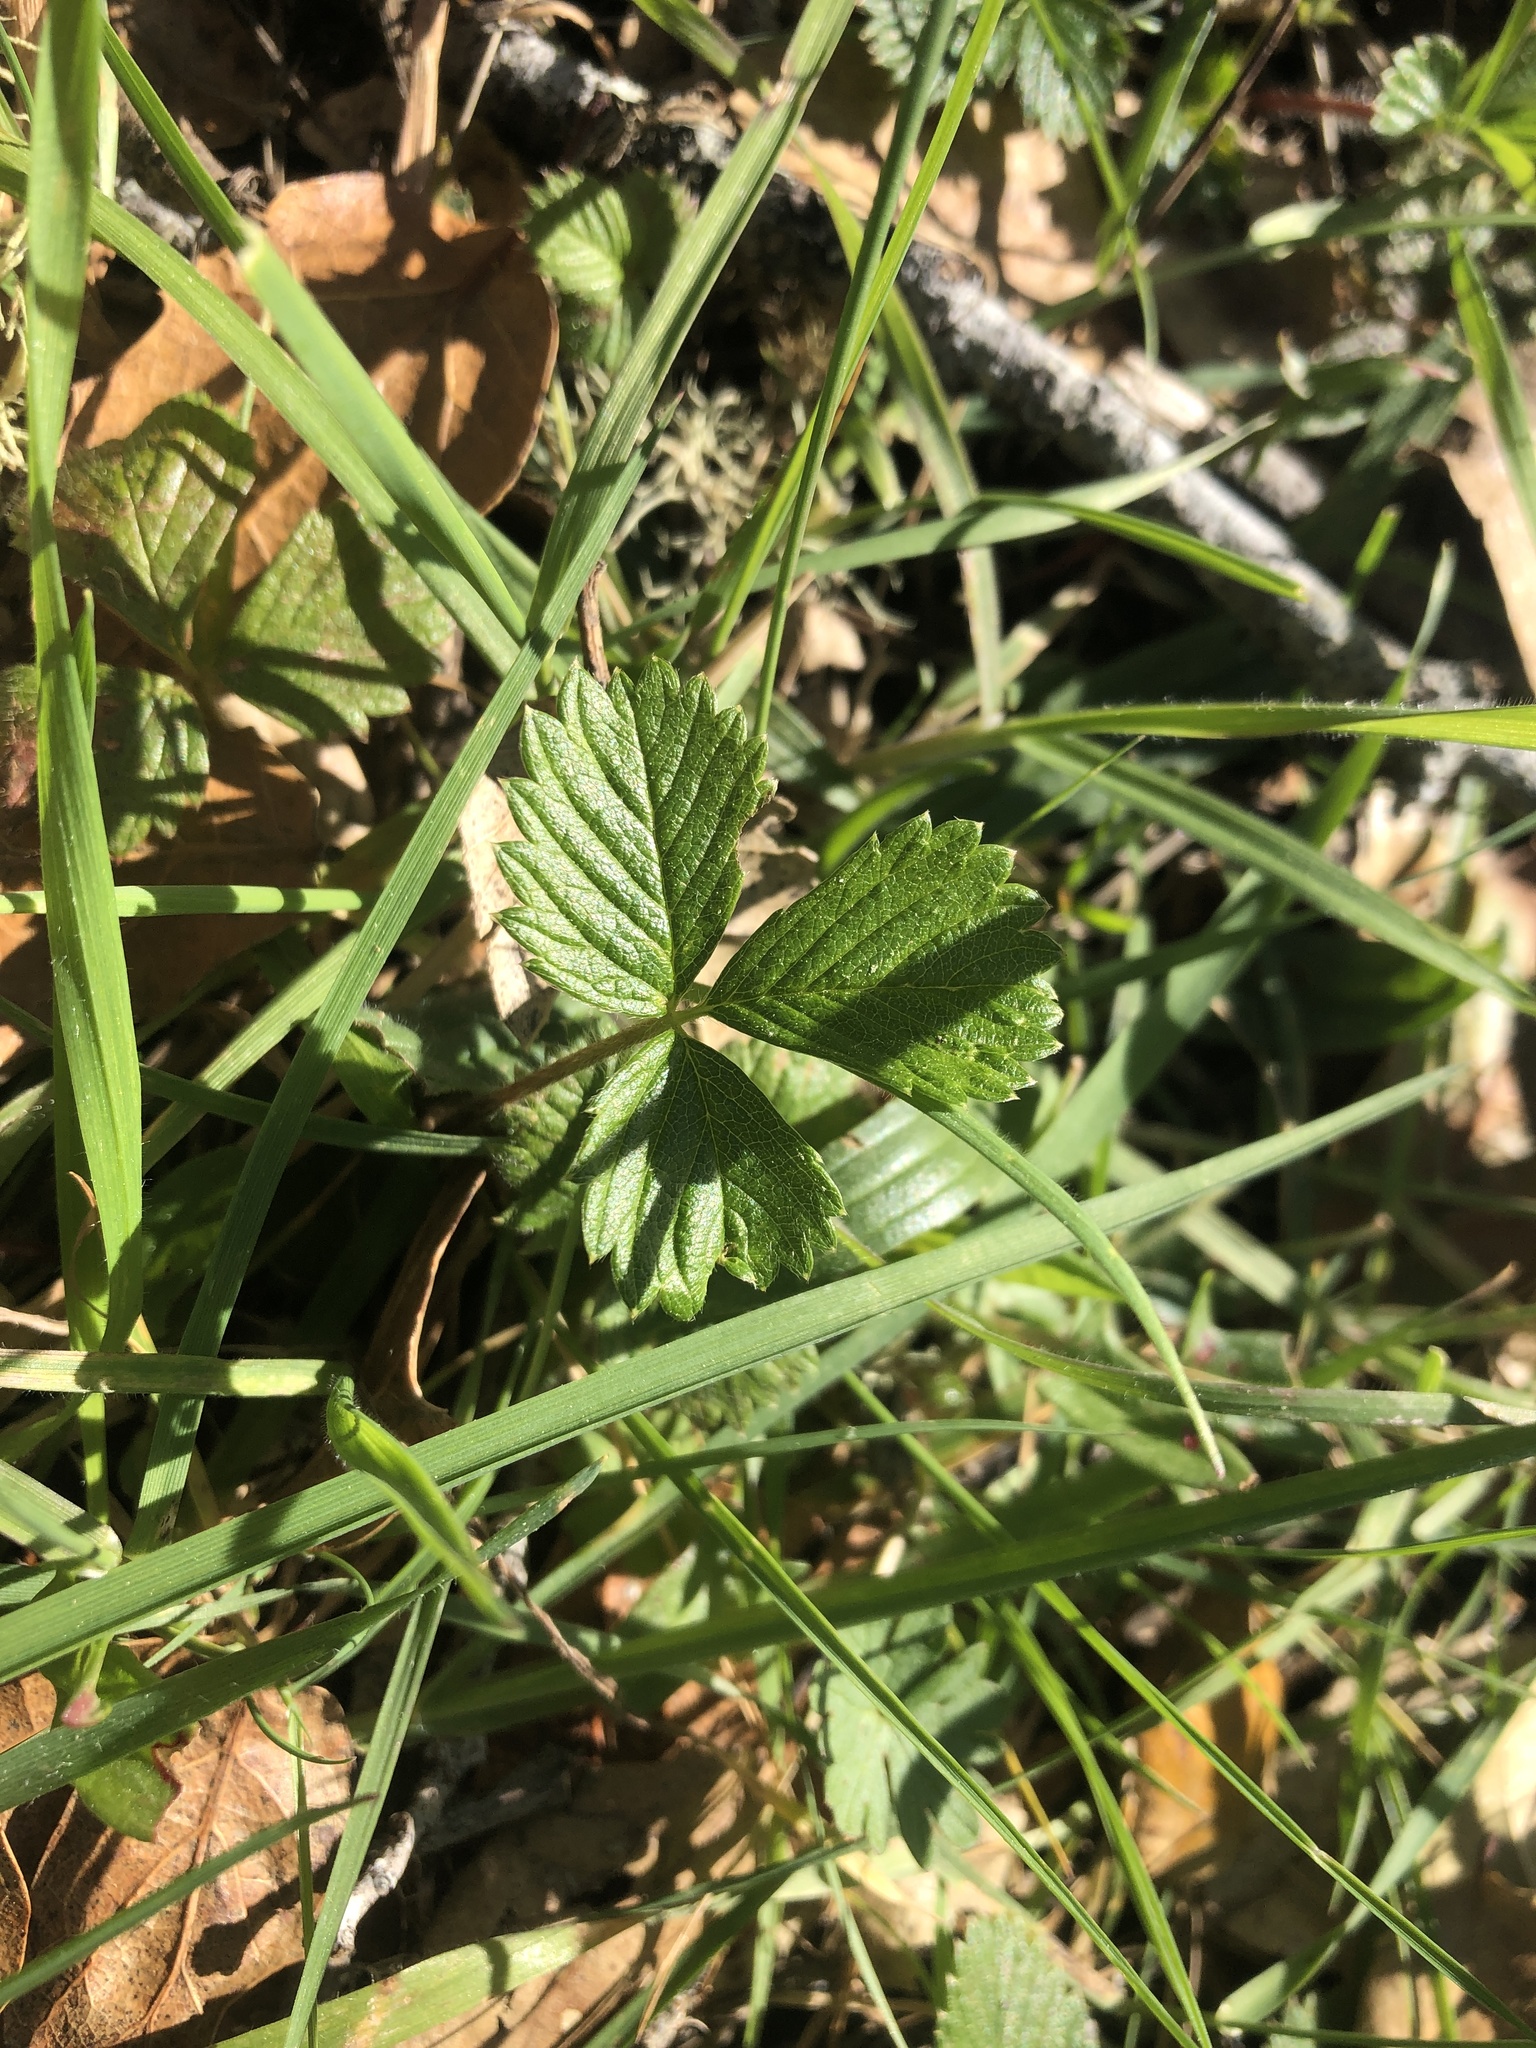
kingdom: Plantae
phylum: Tracheophyta
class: Magnoliopsida
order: Rosales
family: Rosaceae
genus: Fragaria
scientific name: Fragaria vesca
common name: Wild strawberry
